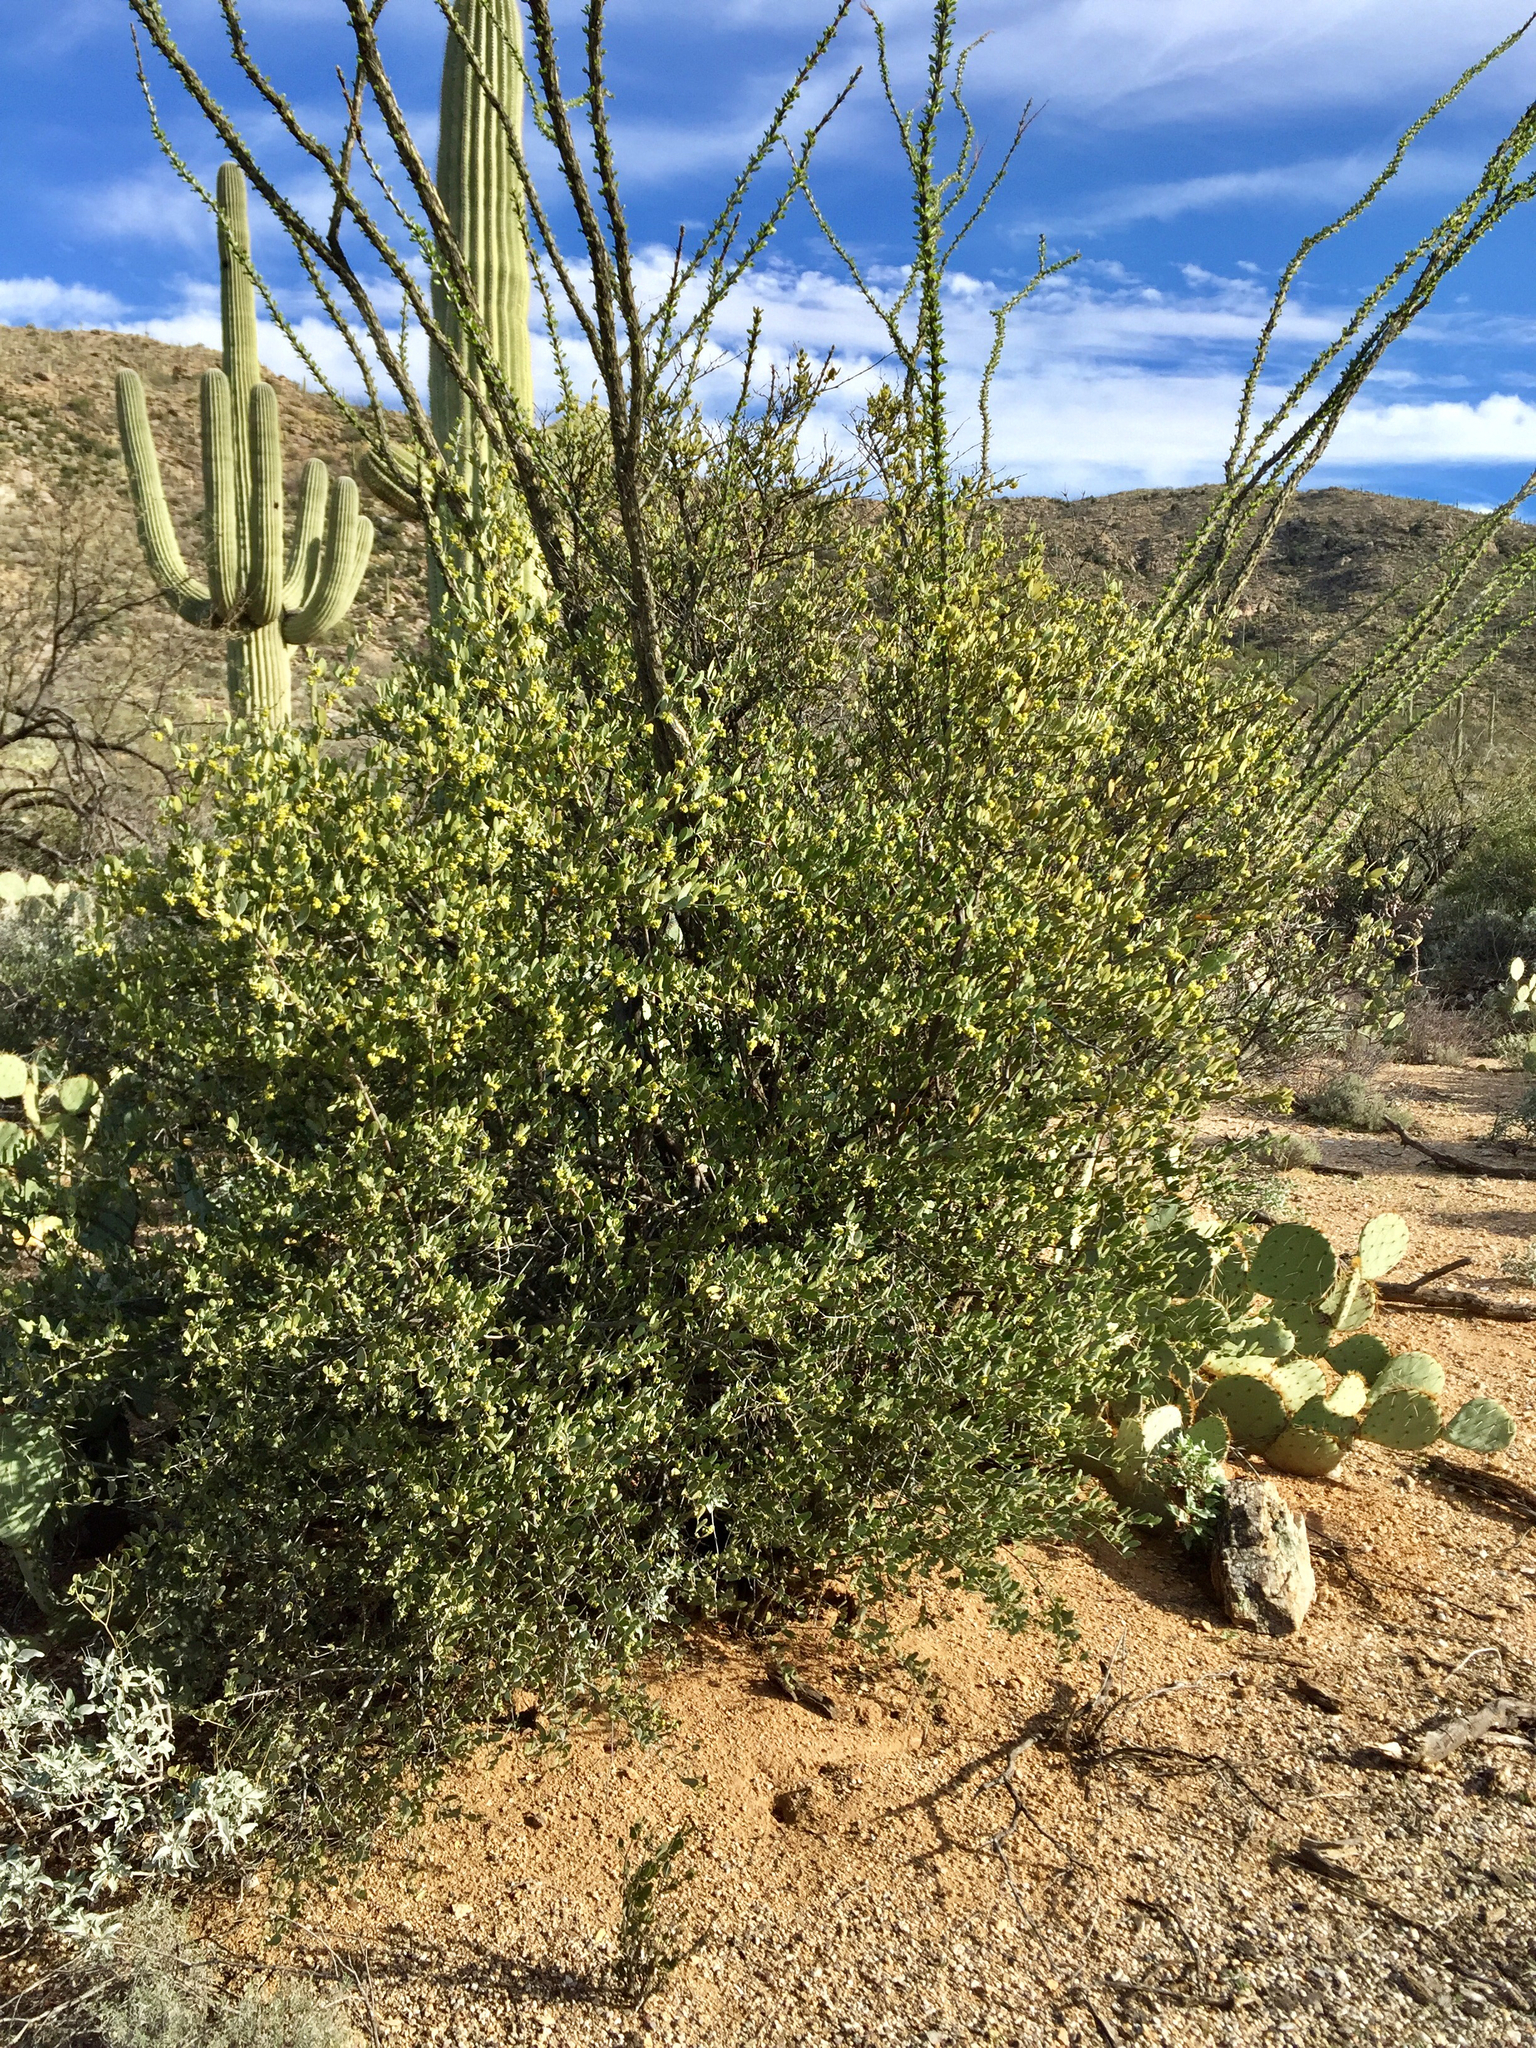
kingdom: Plantae
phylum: Tracheophyta
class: Magnoliopsida
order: Caryophyllales
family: Simmondsiaceae
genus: Simmondsia
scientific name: Simmondsia chinensis
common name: Jojoba
